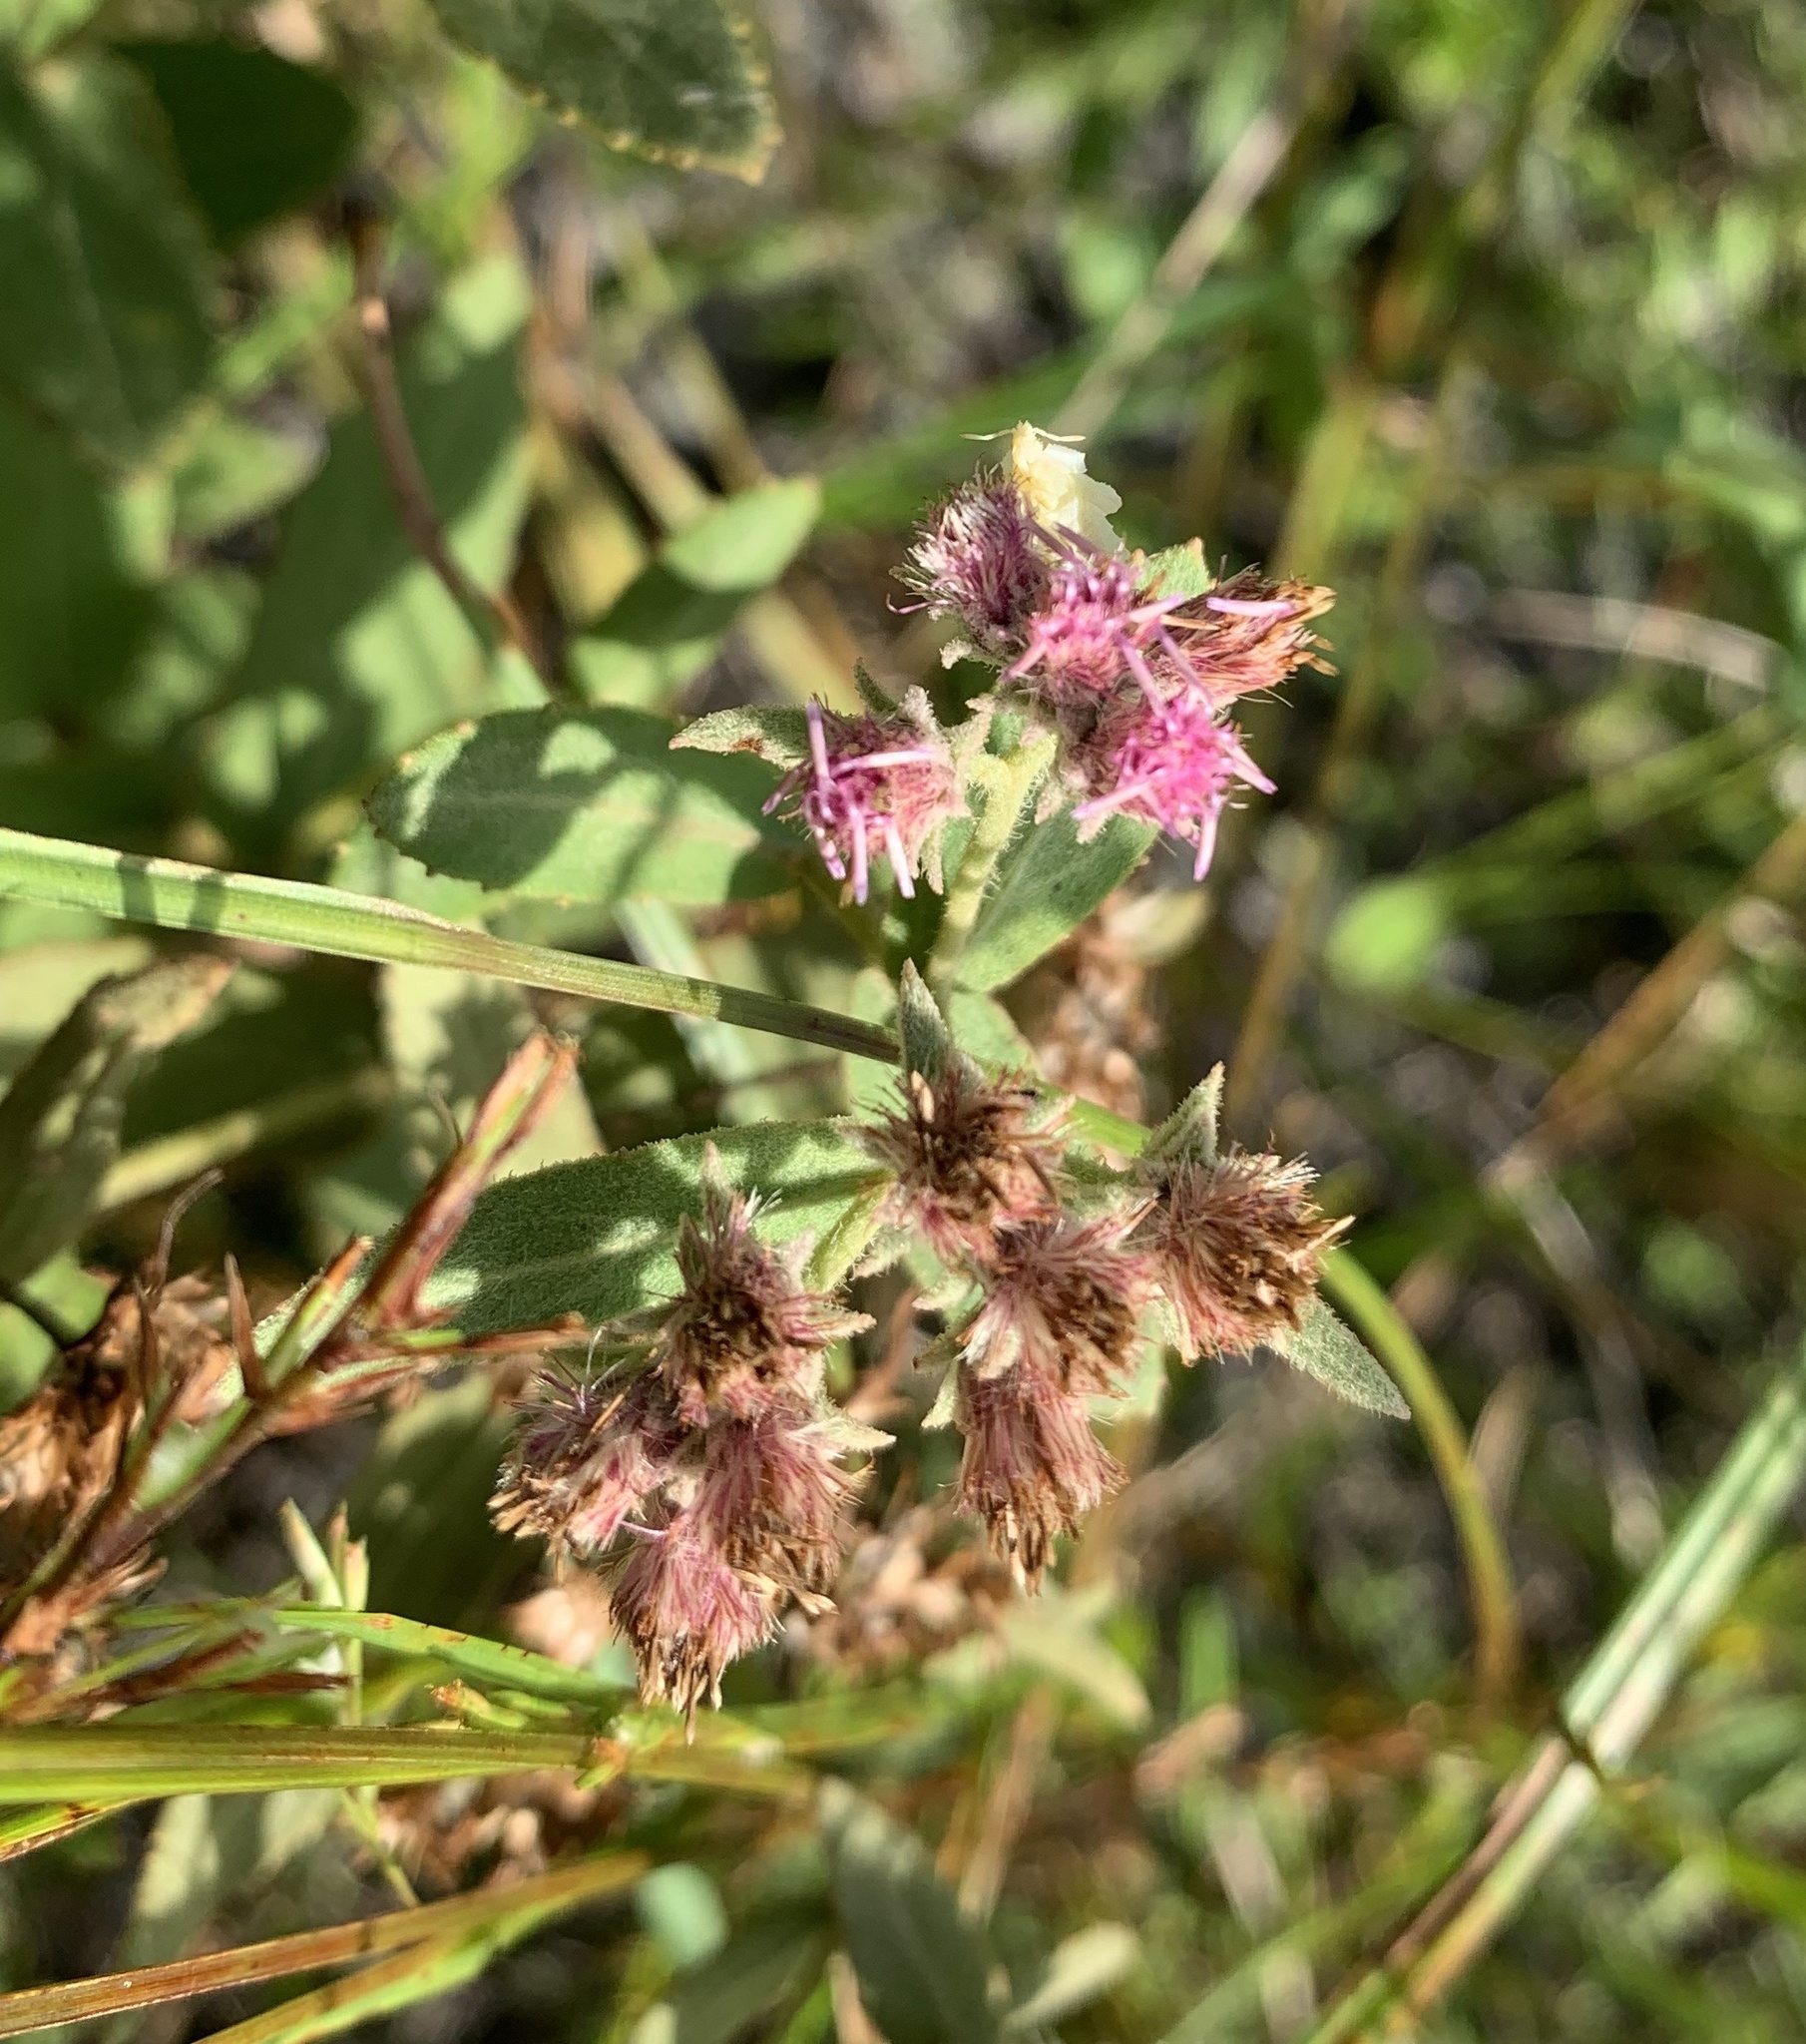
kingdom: Plantae
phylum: Tracheophyta
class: Magnoliopsida
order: Asterales
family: Asteraceae
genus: Pluchea
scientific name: Pluchea baccharis
